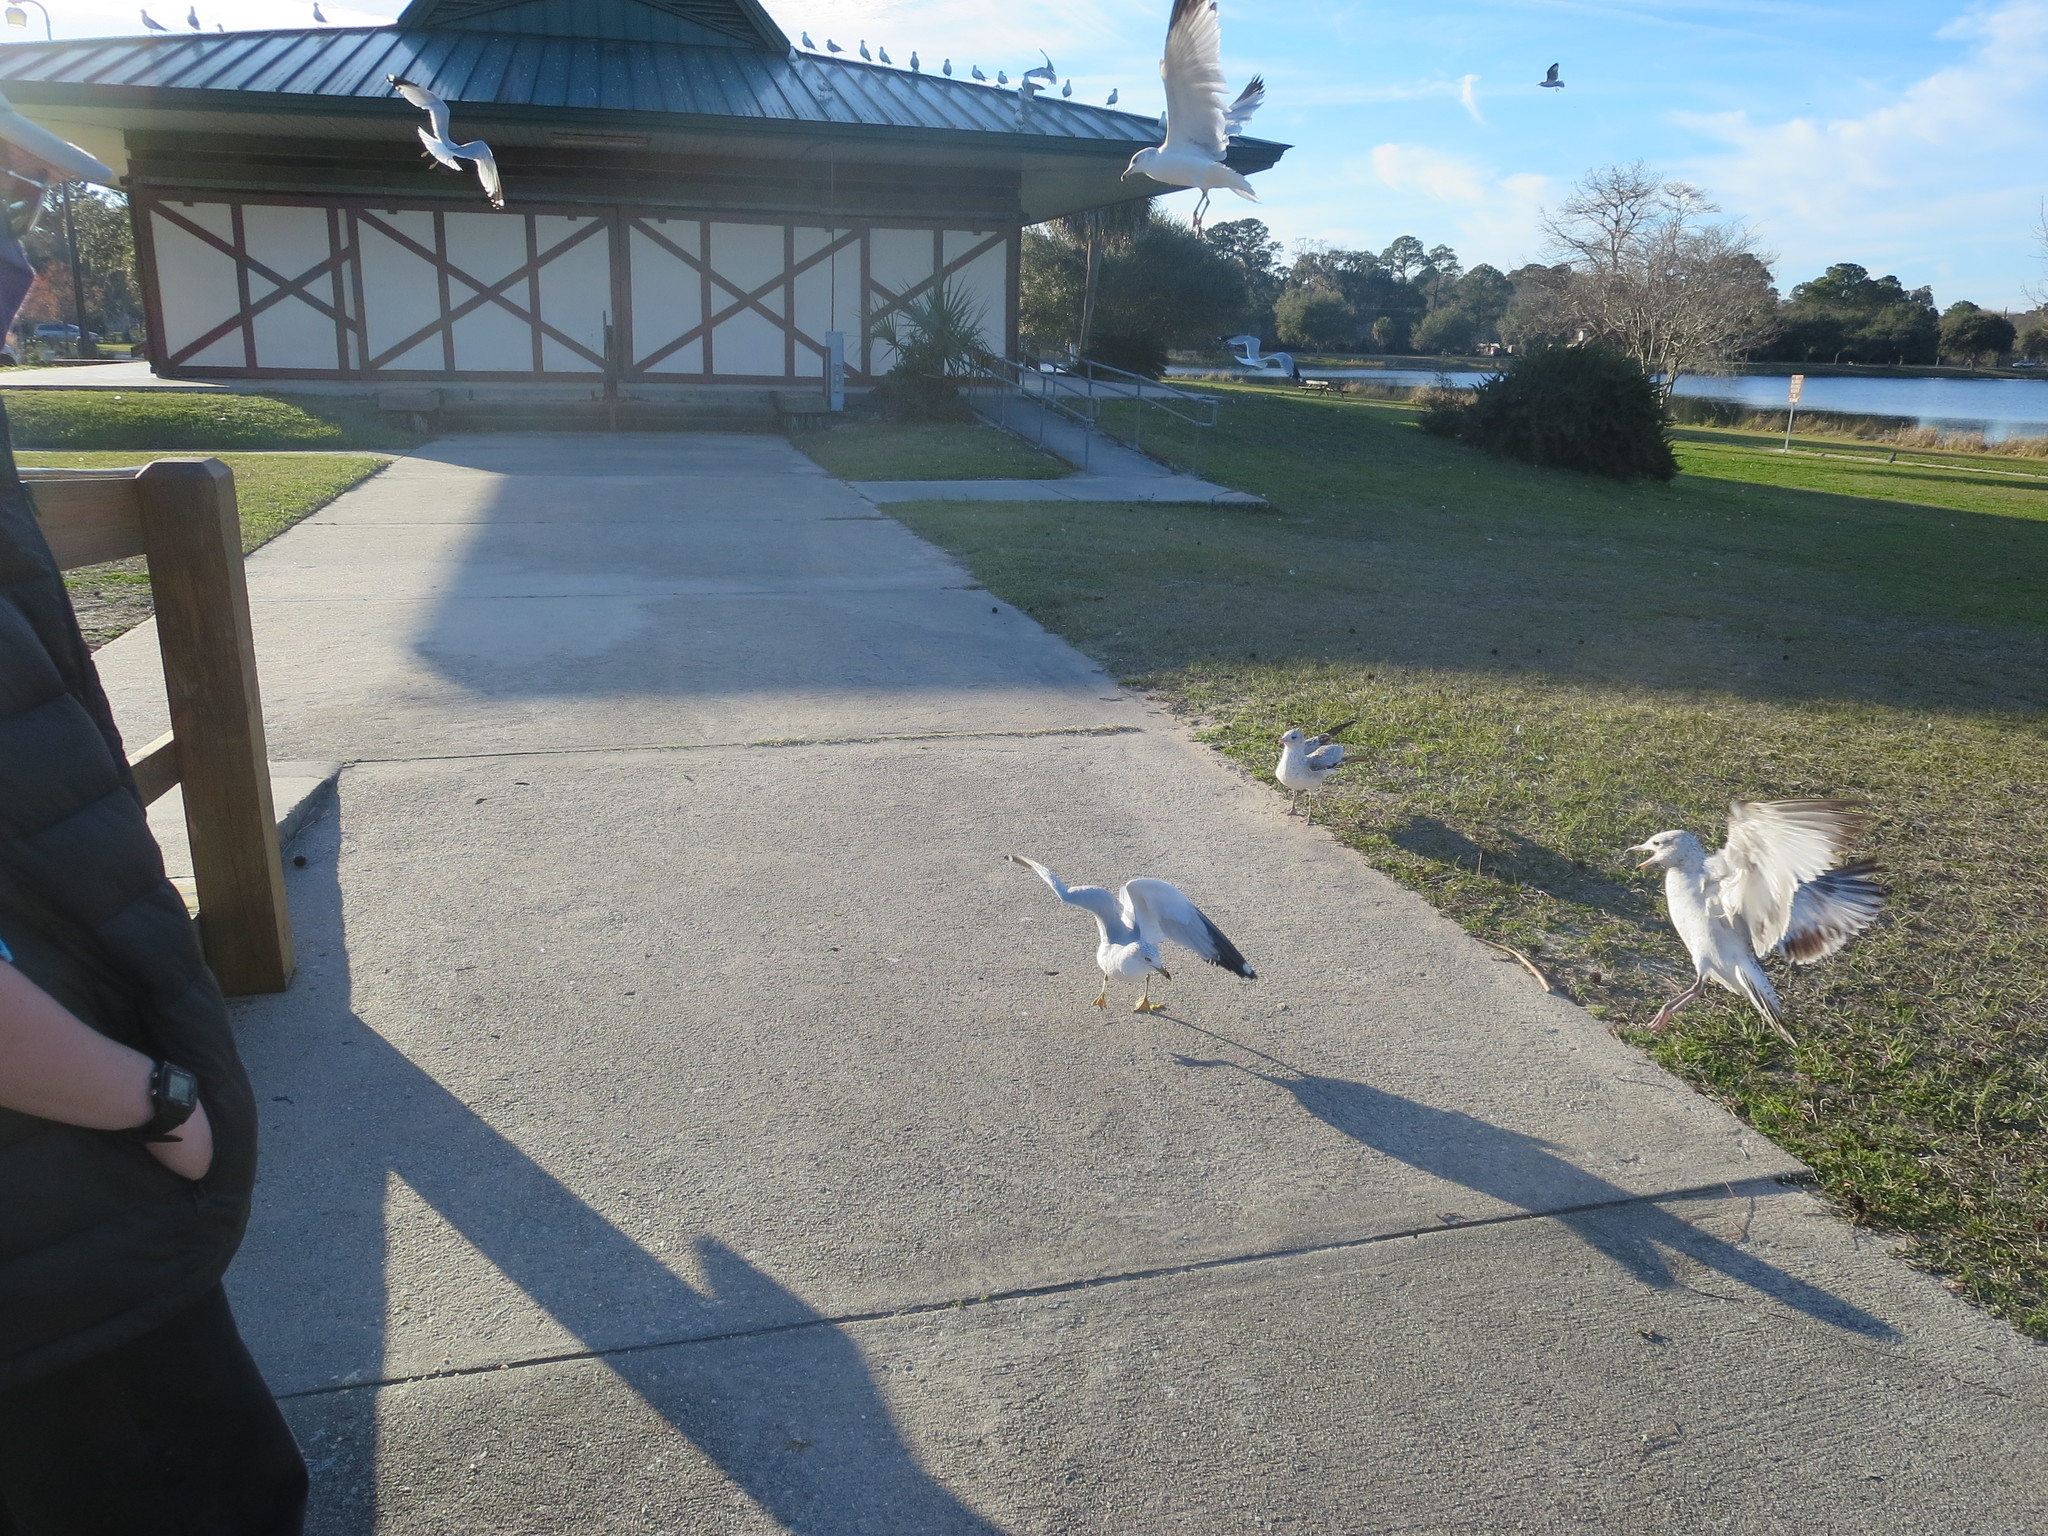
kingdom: Animalia
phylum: Chordata
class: Aves
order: Charadriiformes
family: Laridae
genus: Larus
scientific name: Larus delawarensis
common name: Ring-billed gull
